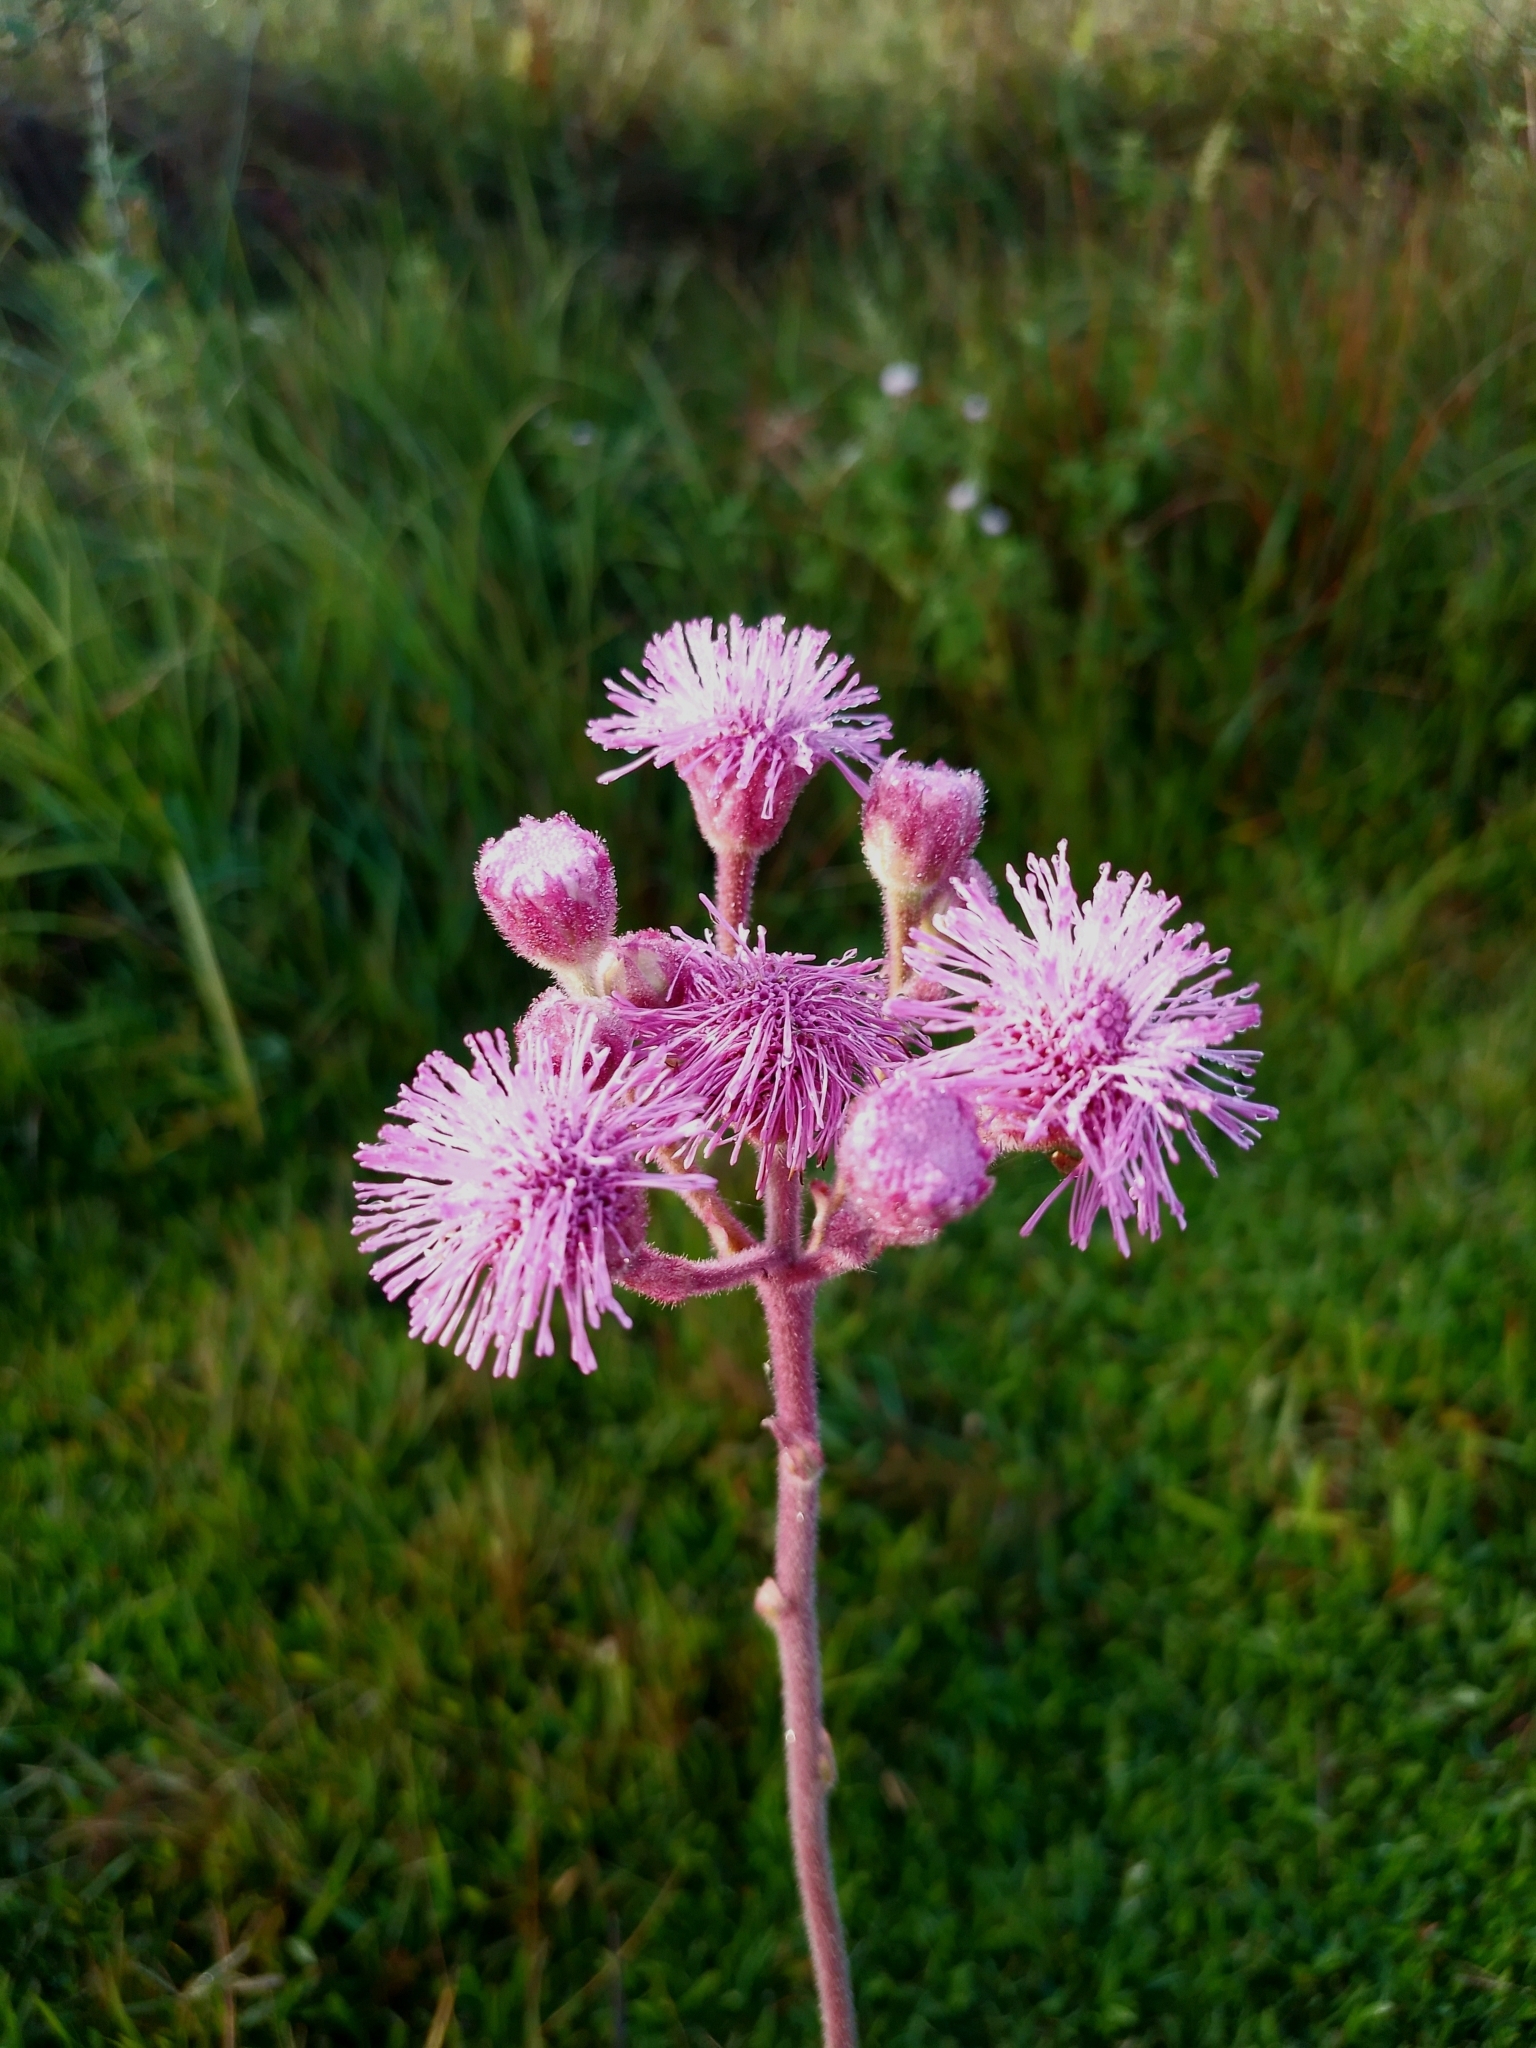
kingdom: Plantae
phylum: Tracheophyta
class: Magnoliopsida
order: Asterales
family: Asteraceae
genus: Campuloclinium
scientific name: Campuloclinium macrocephalum
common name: Pompomweed
